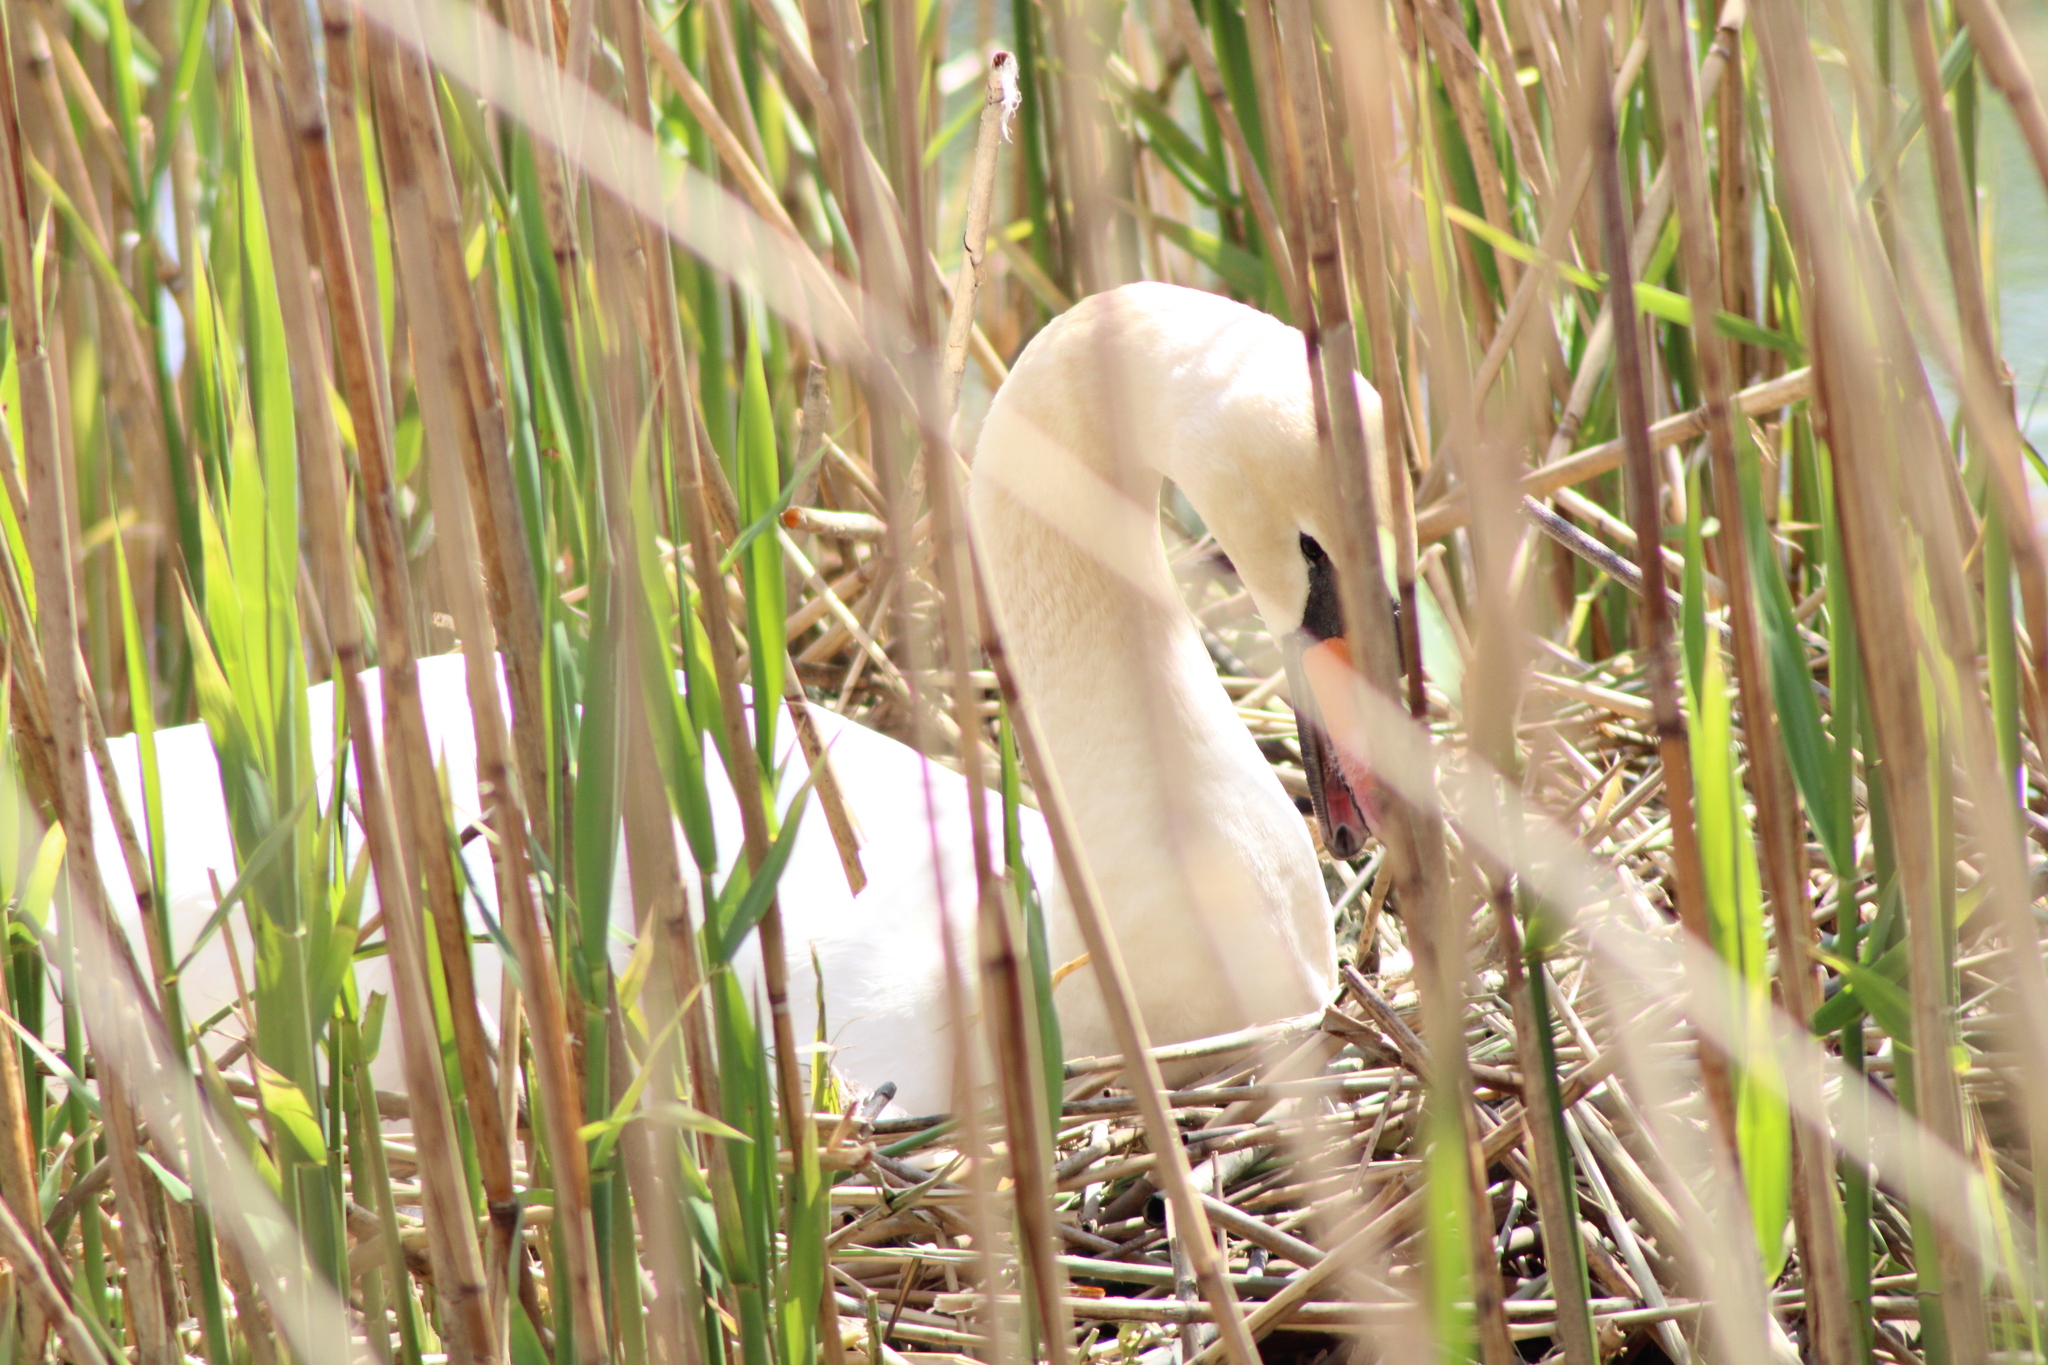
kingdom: Animalia
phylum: Chordata
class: Aves
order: Anseriformes
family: Anatidae
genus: Cygnus
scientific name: Cygnus olor
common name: Mute swan
